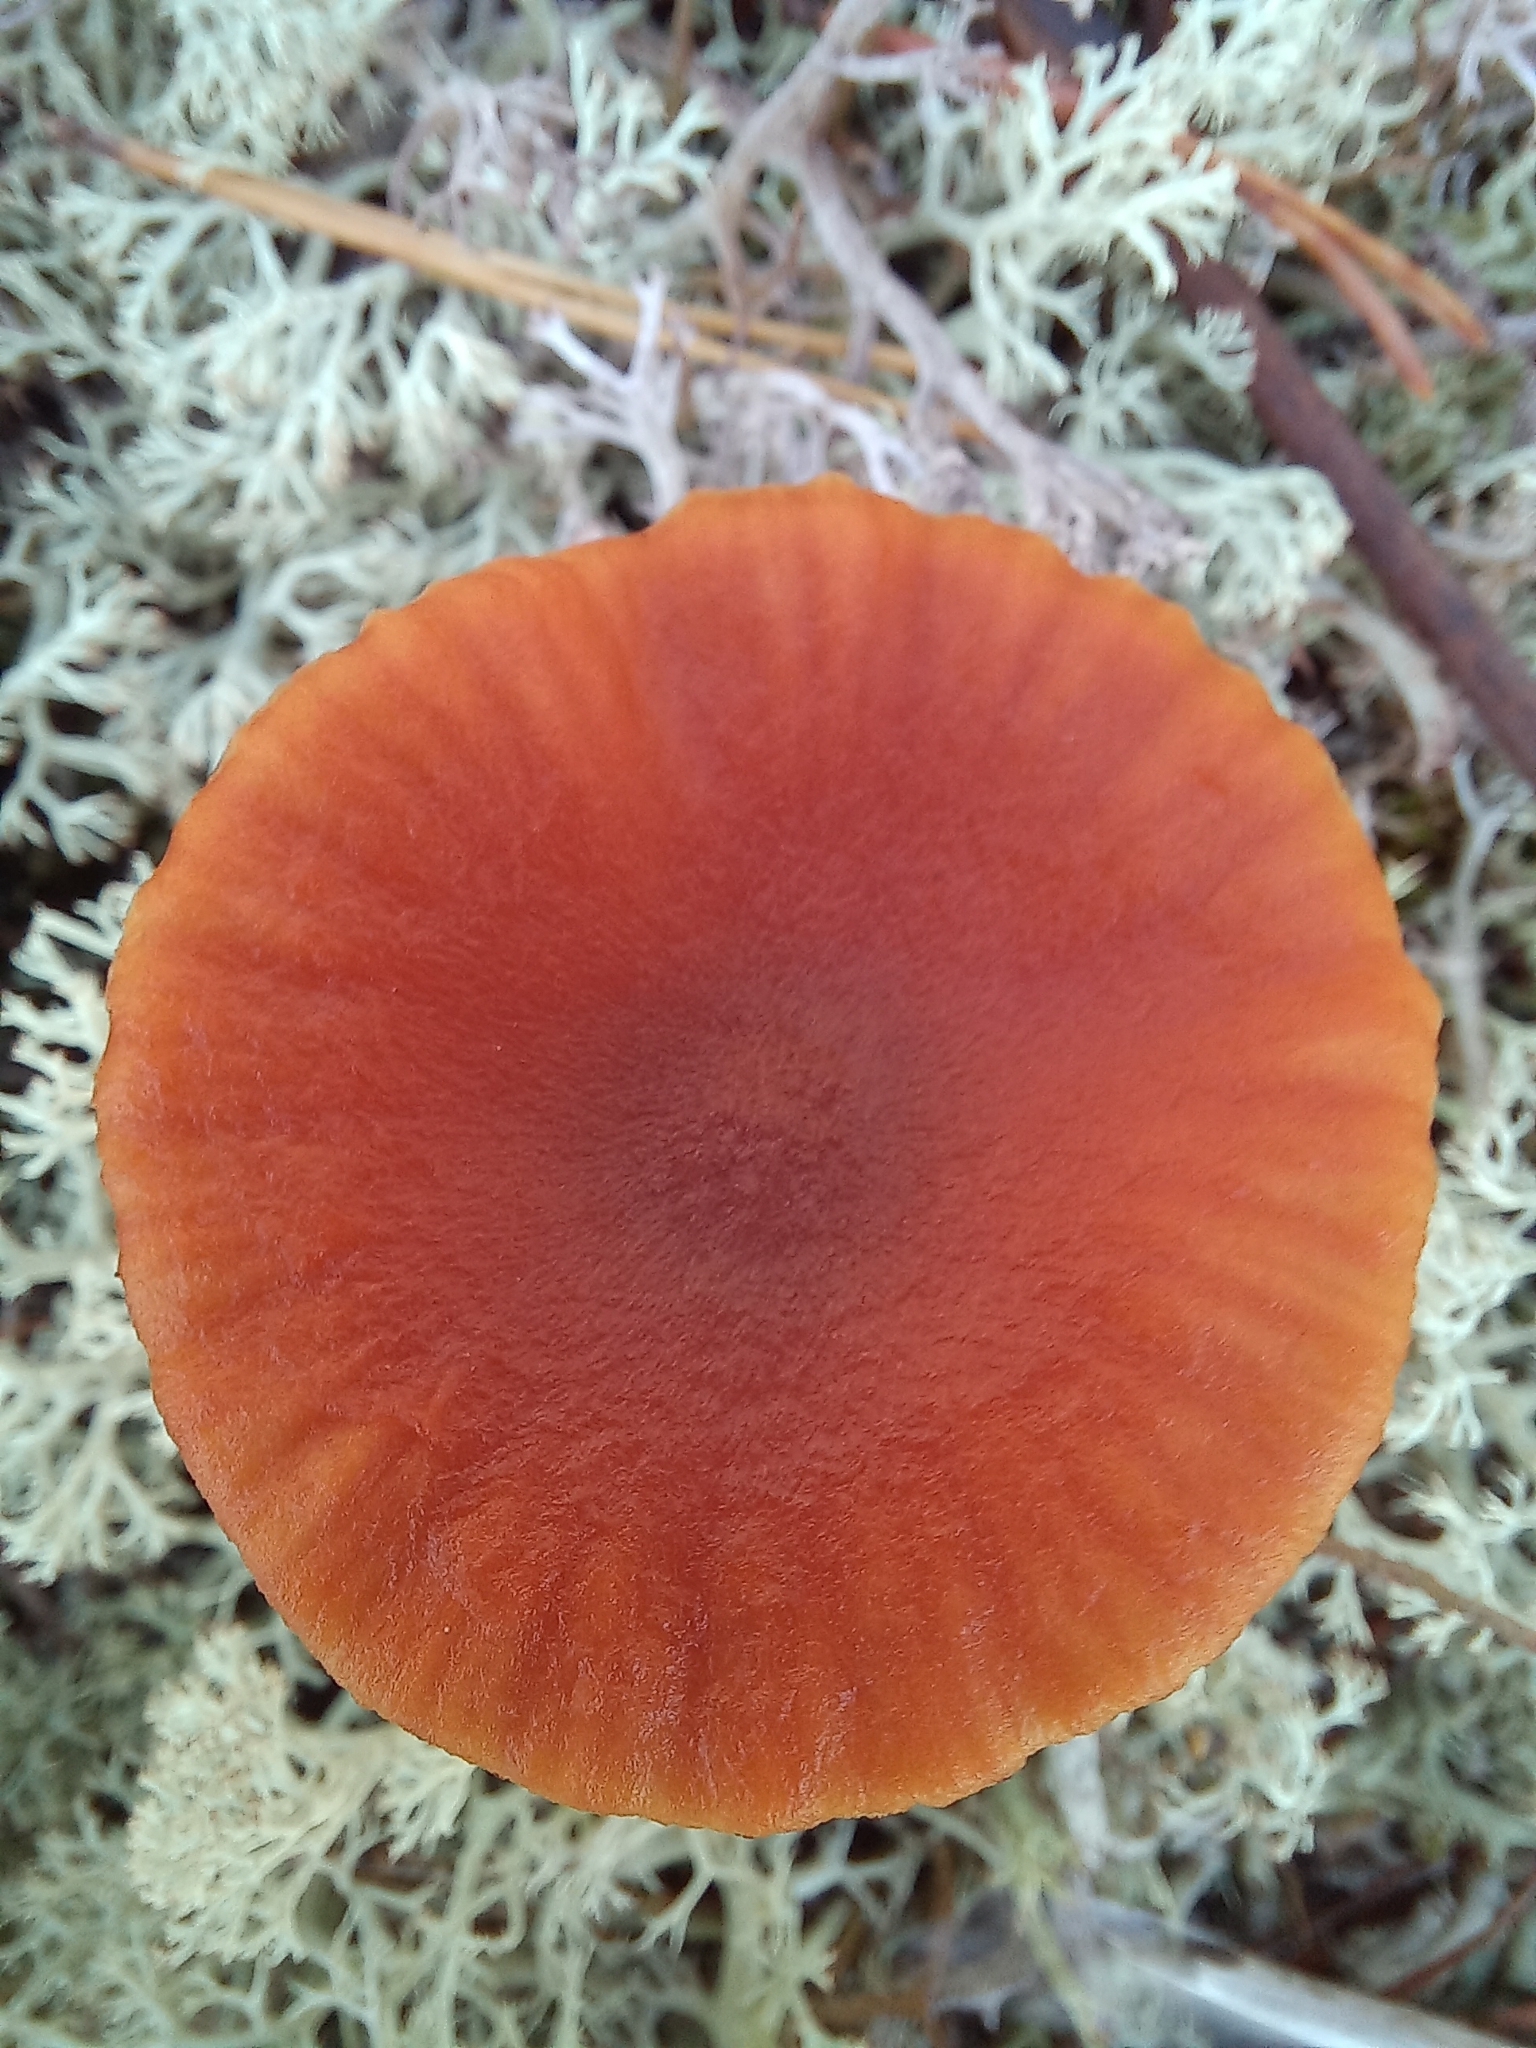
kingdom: Fungi
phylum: Basidiomycota
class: Agaricomycetes
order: Agaricales
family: Hydnangiaceae
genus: Laccaria
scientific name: Laccaria laccata
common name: Deceiver
